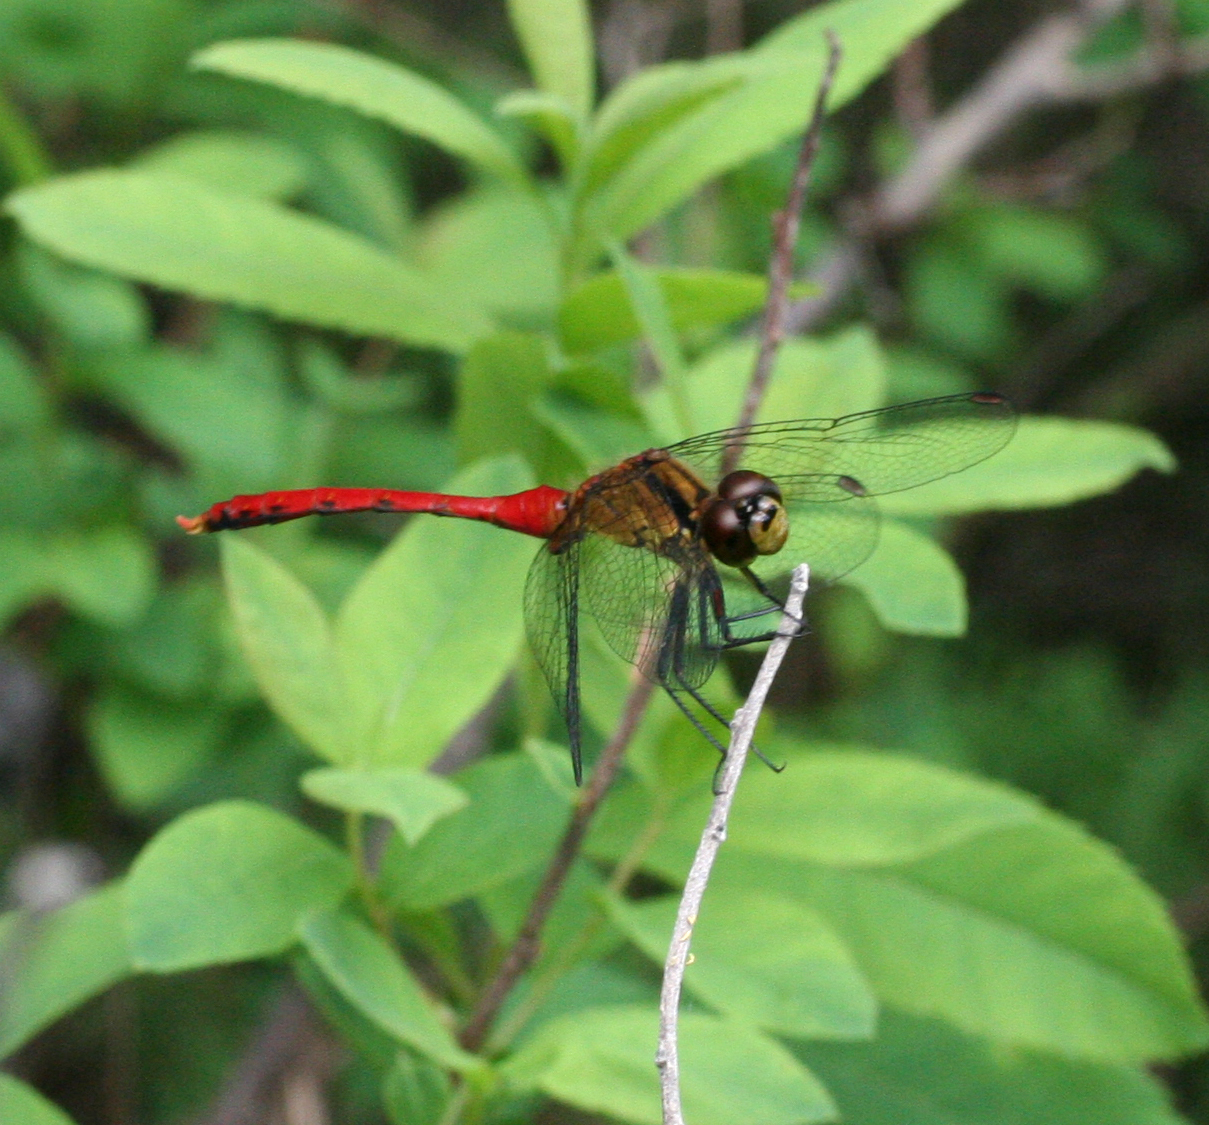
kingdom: Animalia
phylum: Arthropoda
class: Insecta
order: Odonata
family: Libellulidae
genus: Sympetrum
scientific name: Sympetrum eroticum
